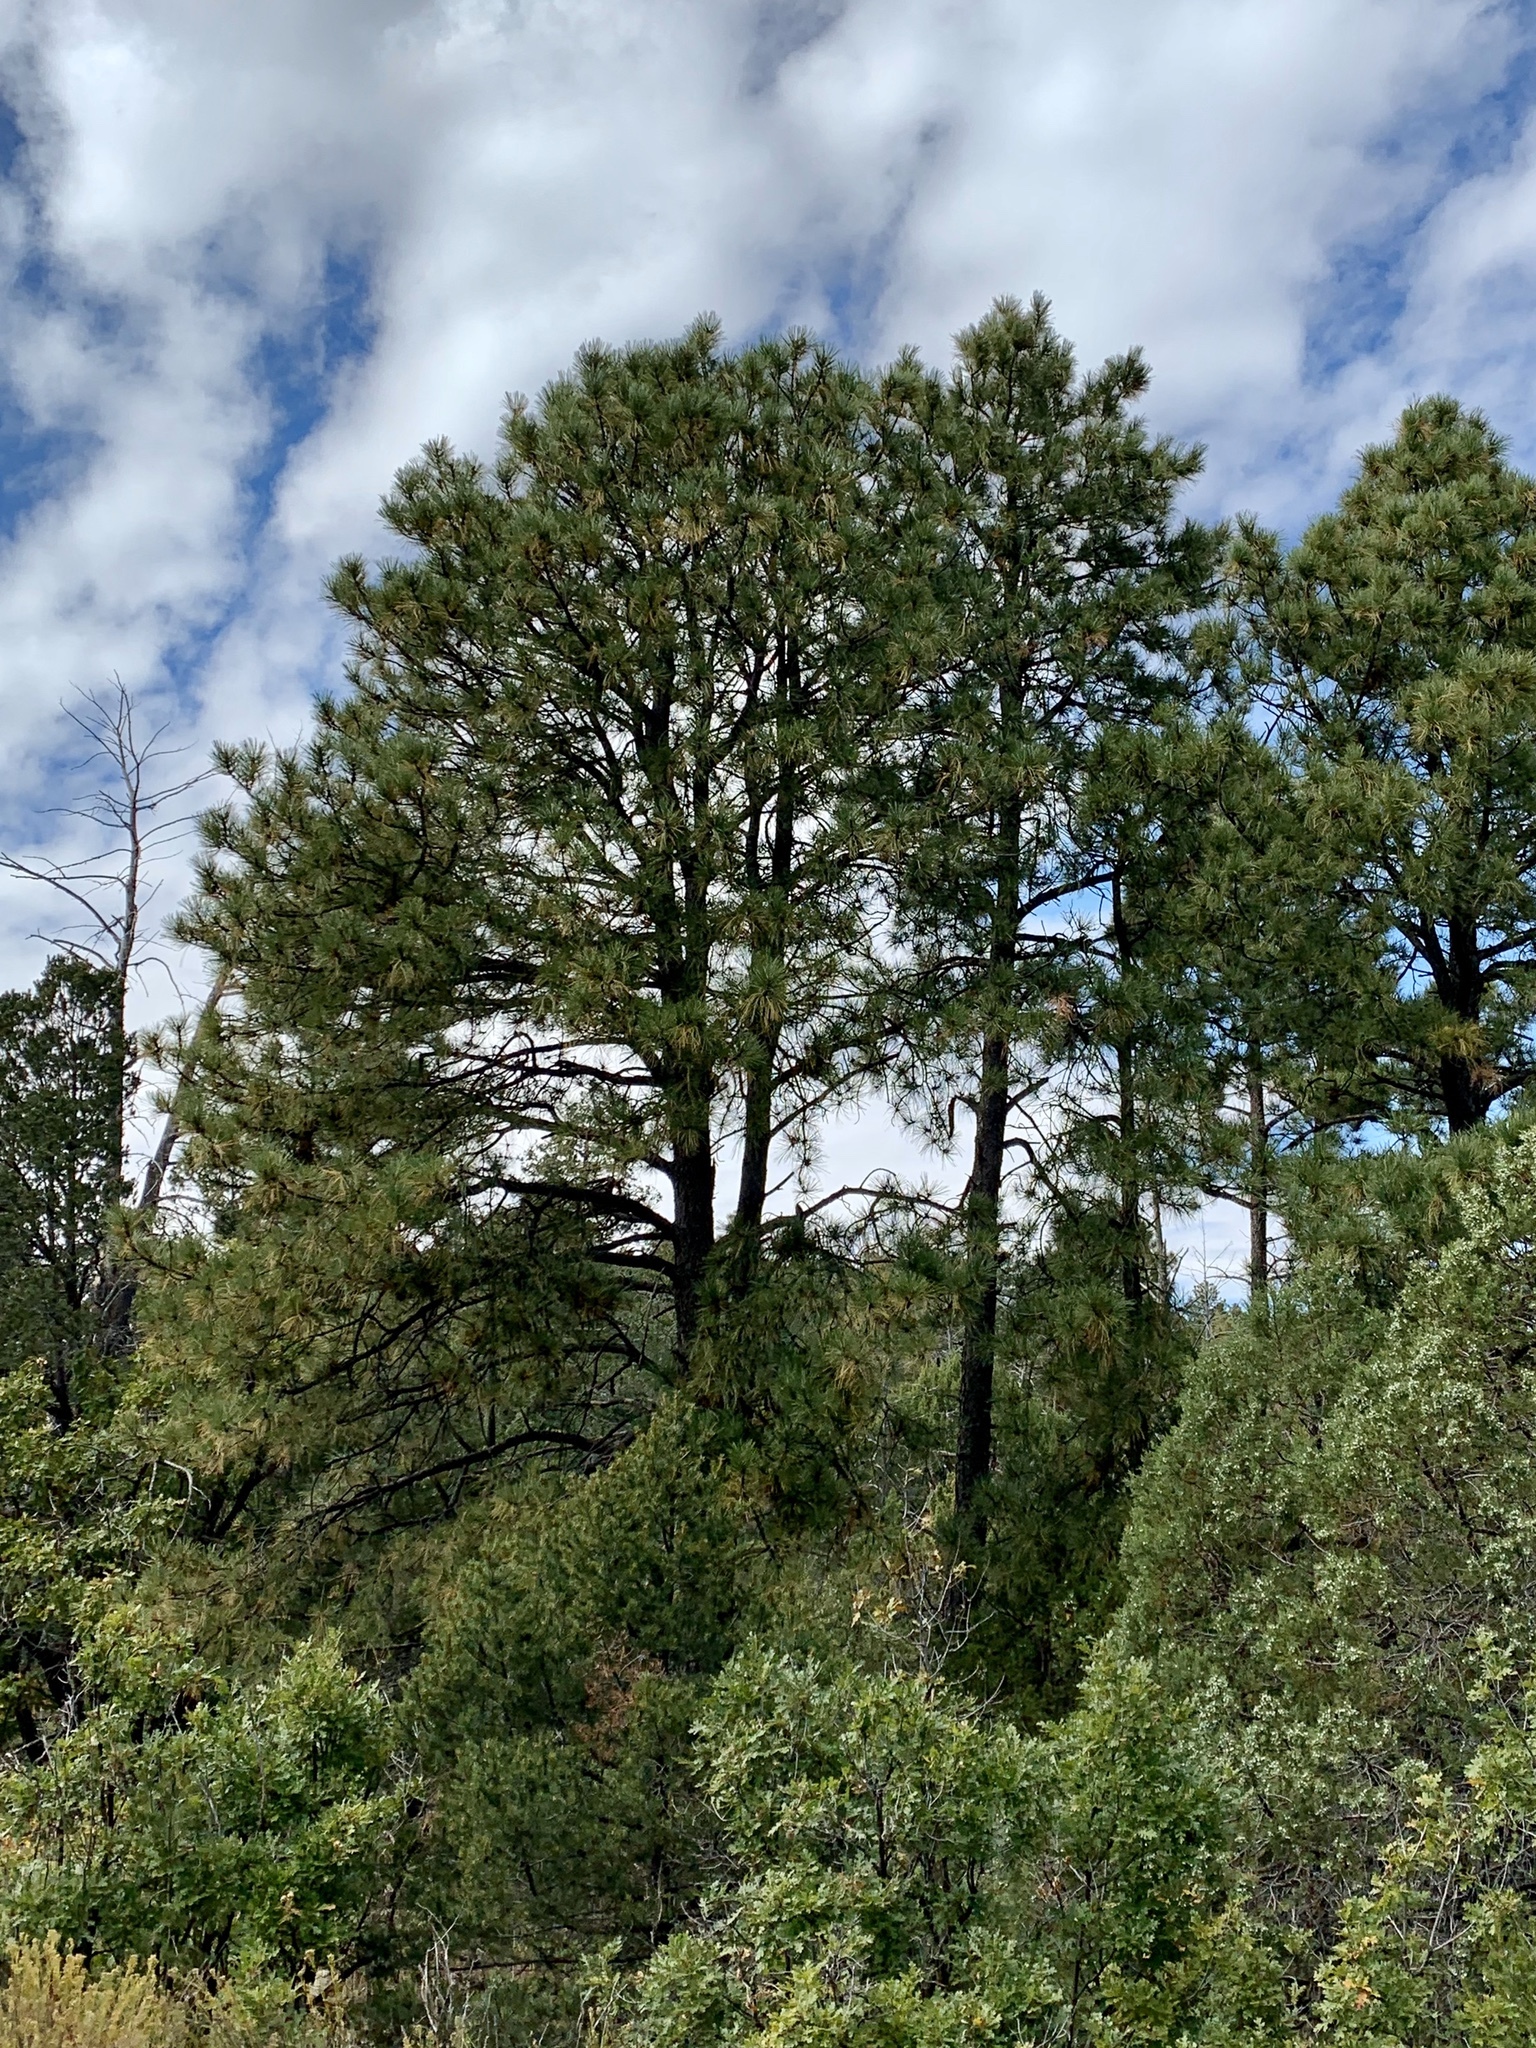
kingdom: Plantae
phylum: Tracheophyta
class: Pinopsida
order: Pinales
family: Pinaceae
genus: Pinus
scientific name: Pinus ponderosa
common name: Western yellow-pine
